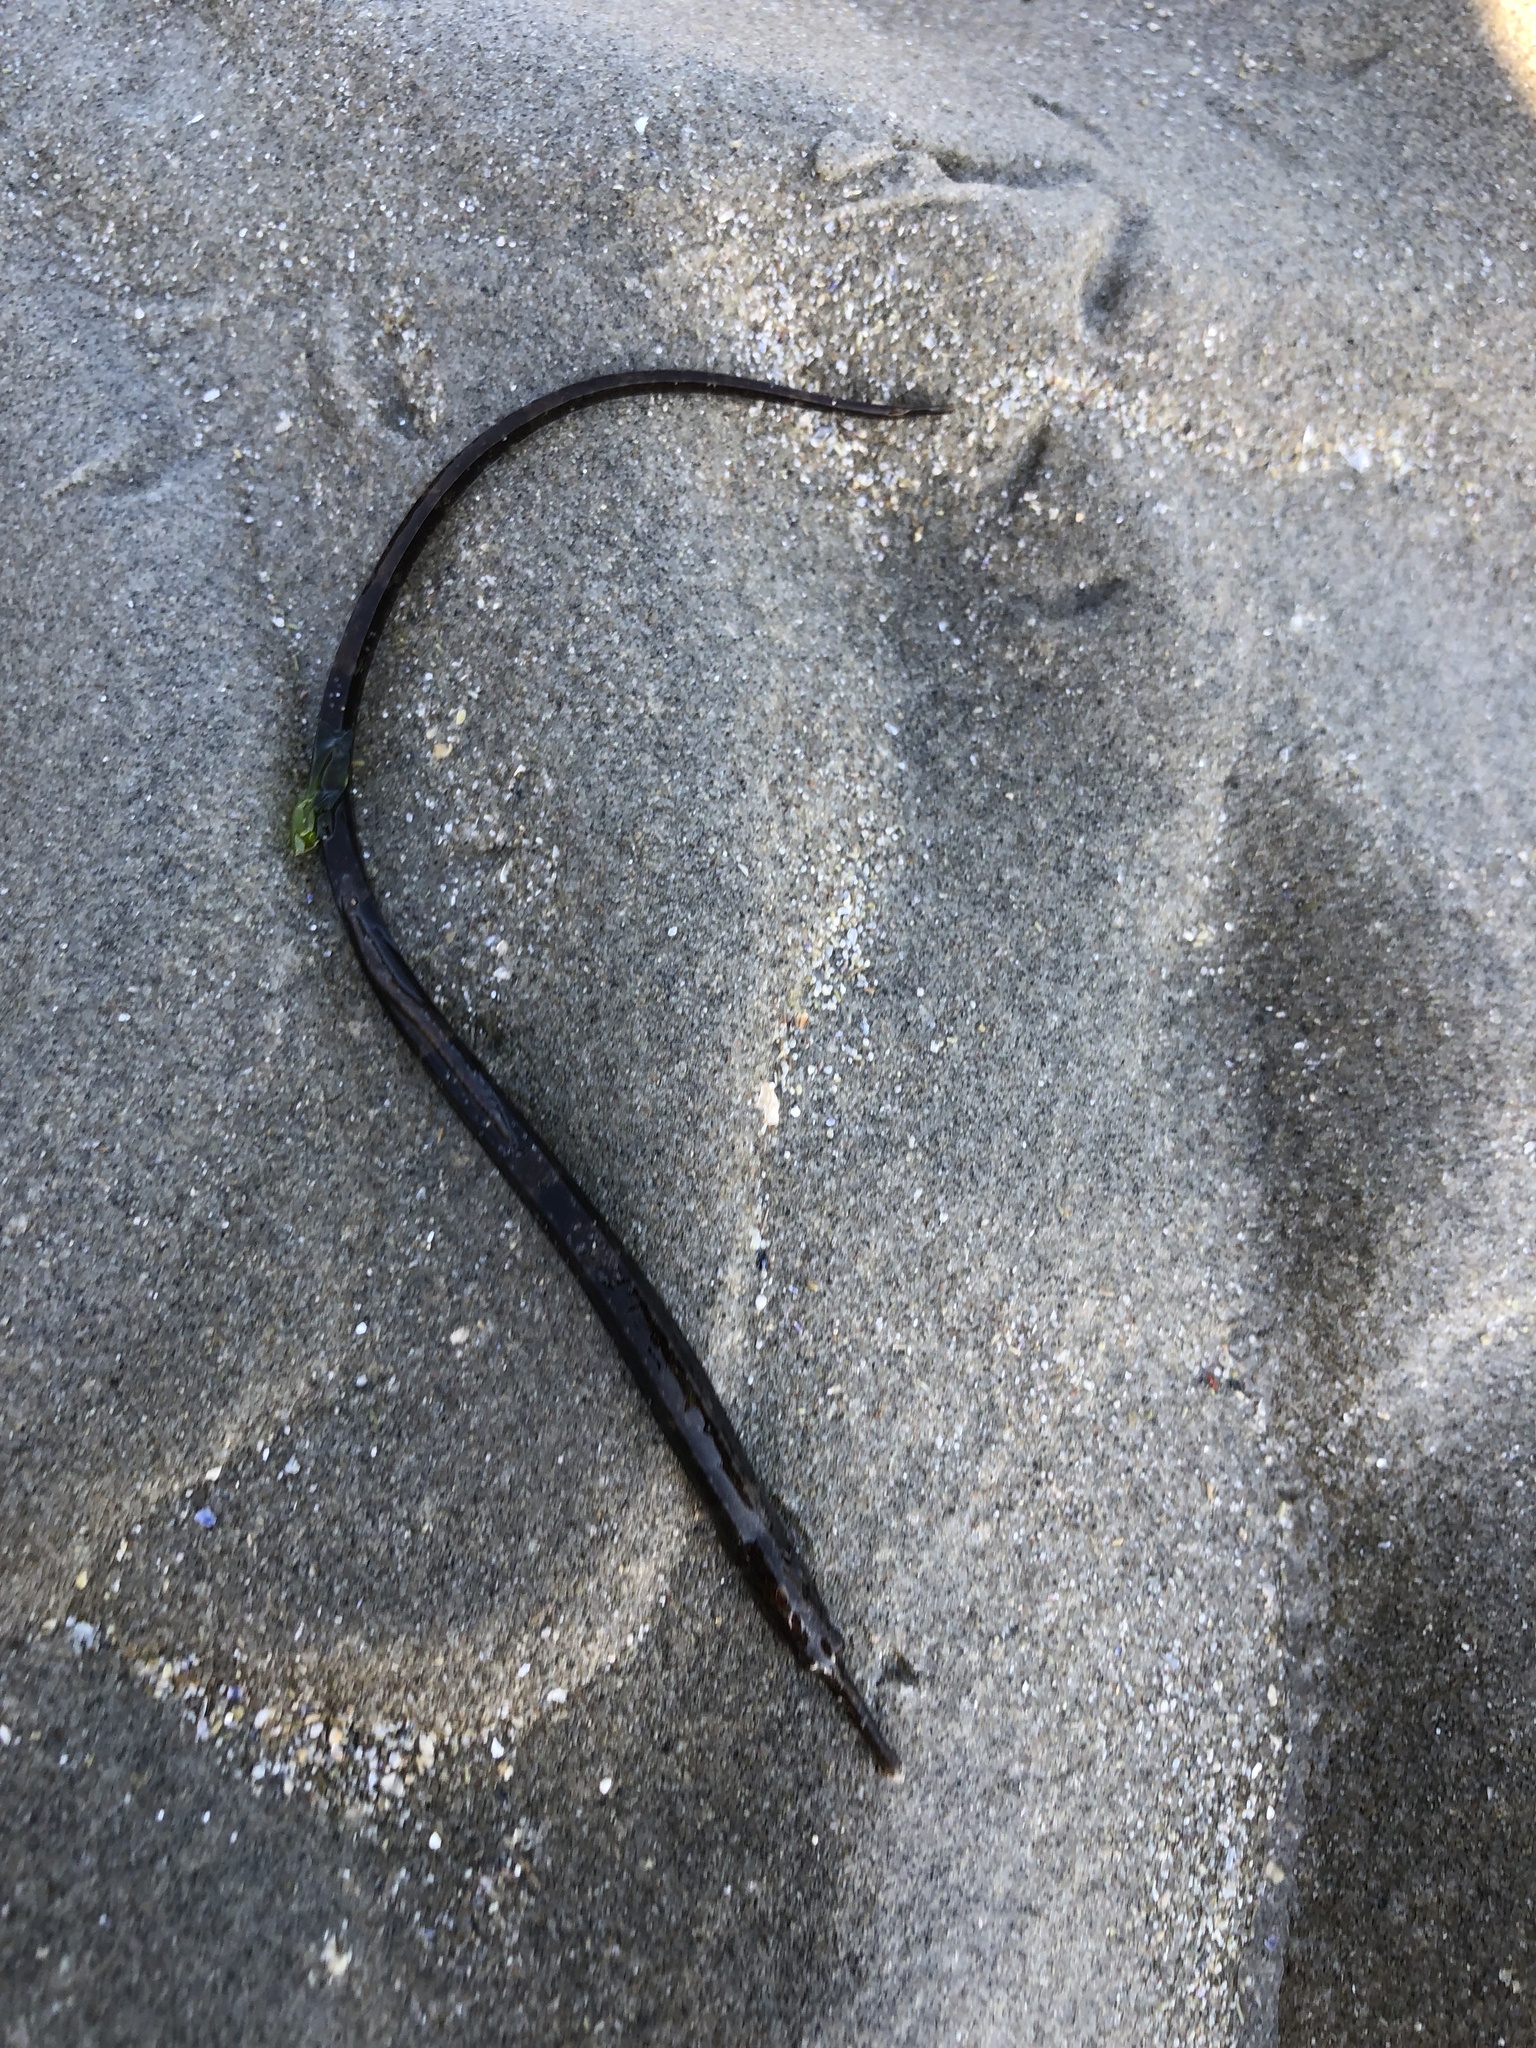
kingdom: Animalia
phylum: Chordata
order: Syngnathiformes
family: Syngnathidae
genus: Syngnathus
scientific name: Syngnathus fuscus
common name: Northern pipefish
